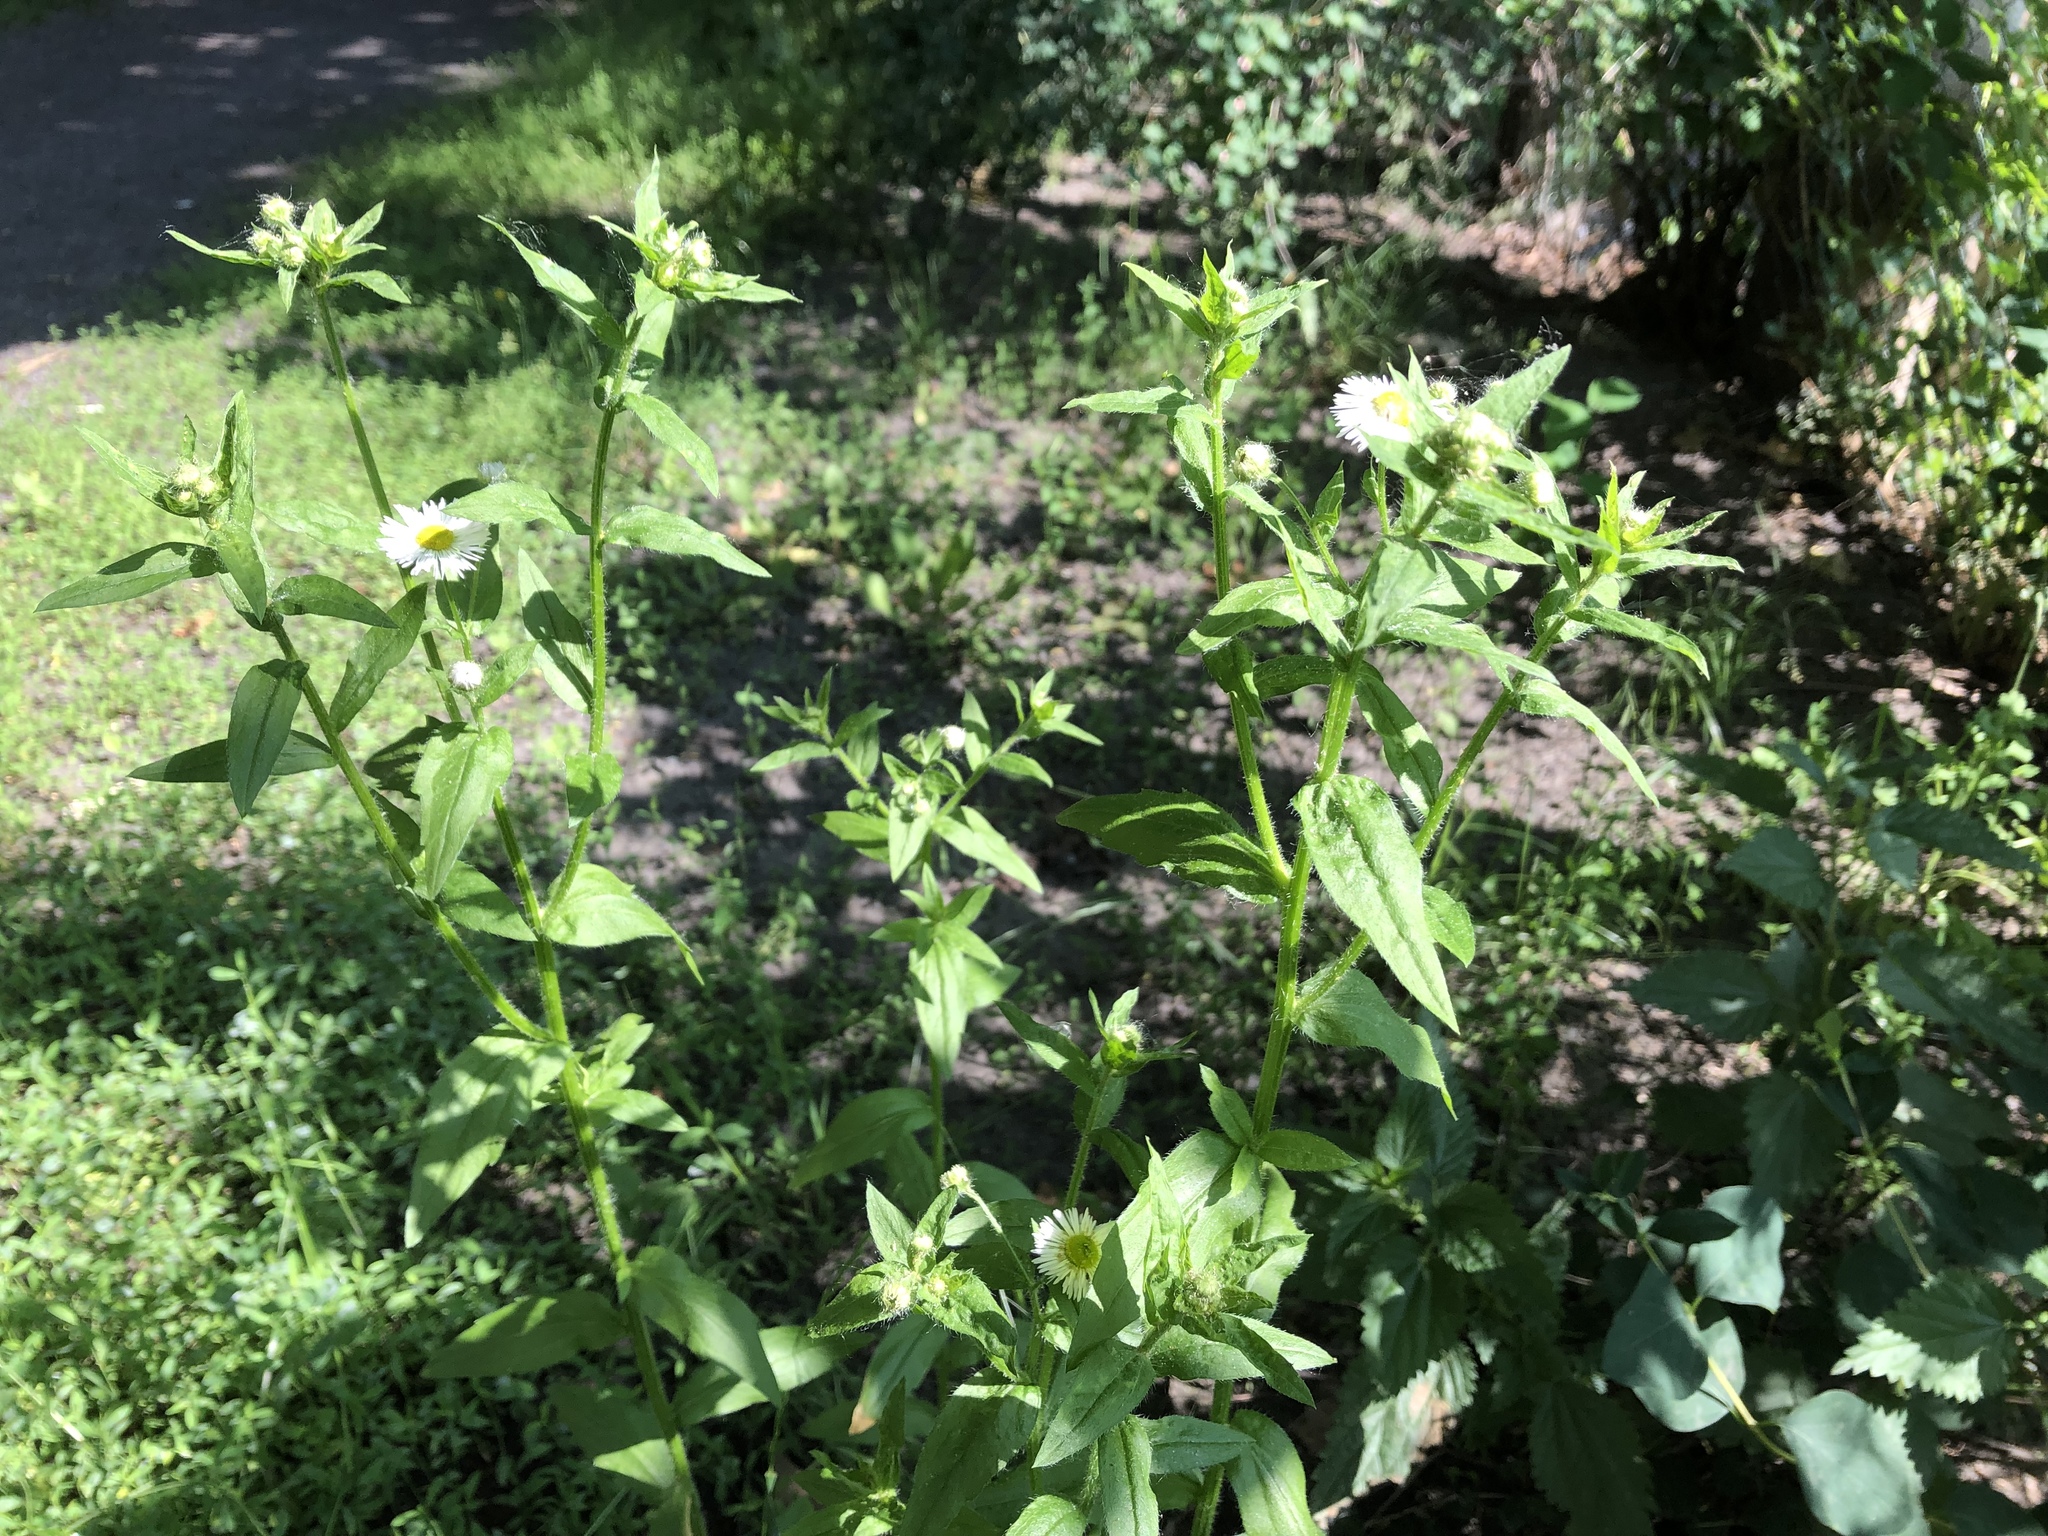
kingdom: Plantae
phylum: Tracheophyta
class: Magnoliopsida
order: Asterales
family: Asteraceae
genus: Erigeron
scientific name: Erigeron annuus
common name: Tall fleabane
